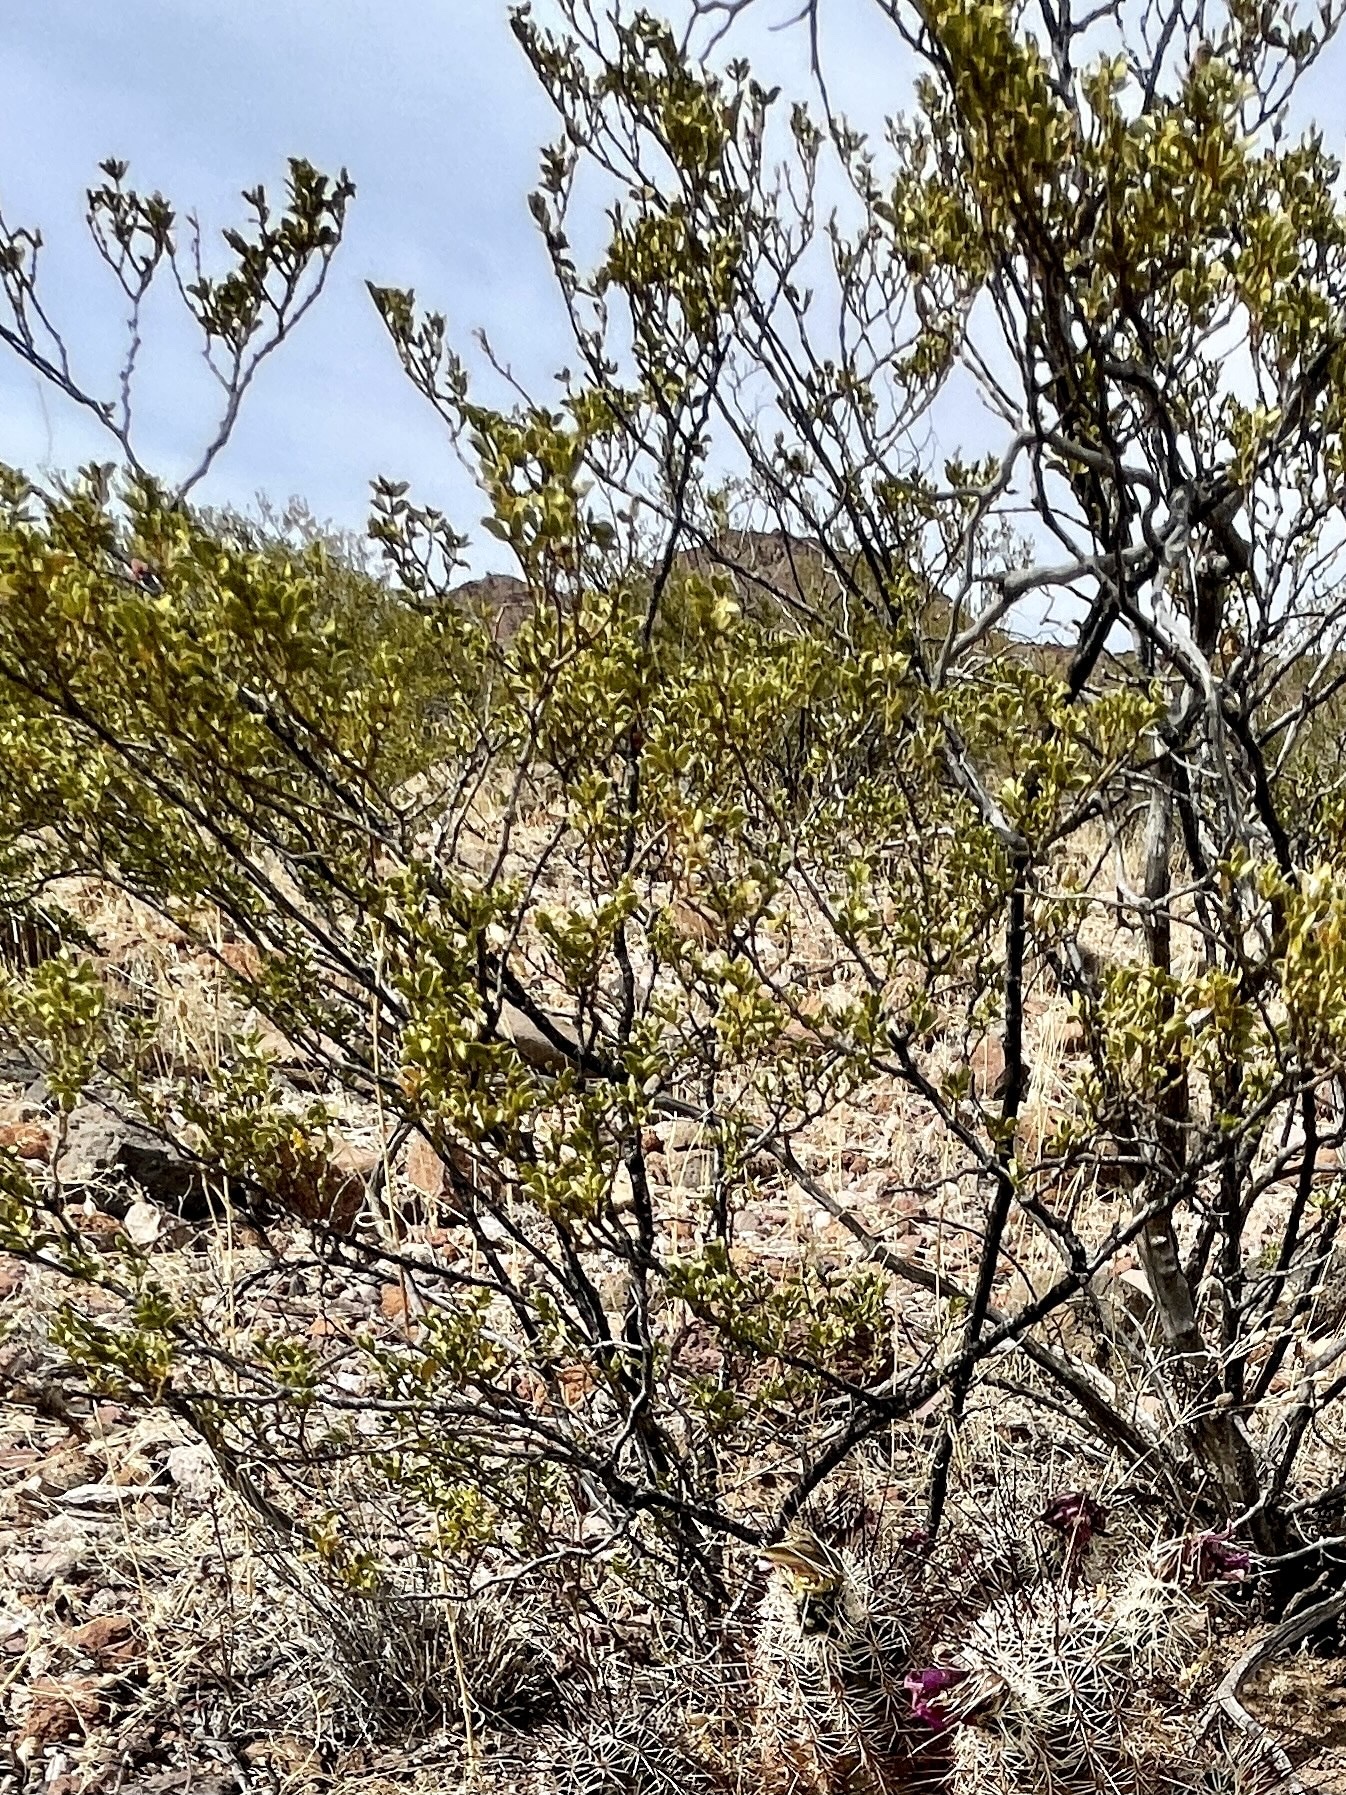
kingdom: Plantae
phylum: Tracheophyta
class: Magnoliopsida
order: Zygophyllales
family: Zygophyllaceae
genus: Larrea
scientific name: Larrea tridentata
